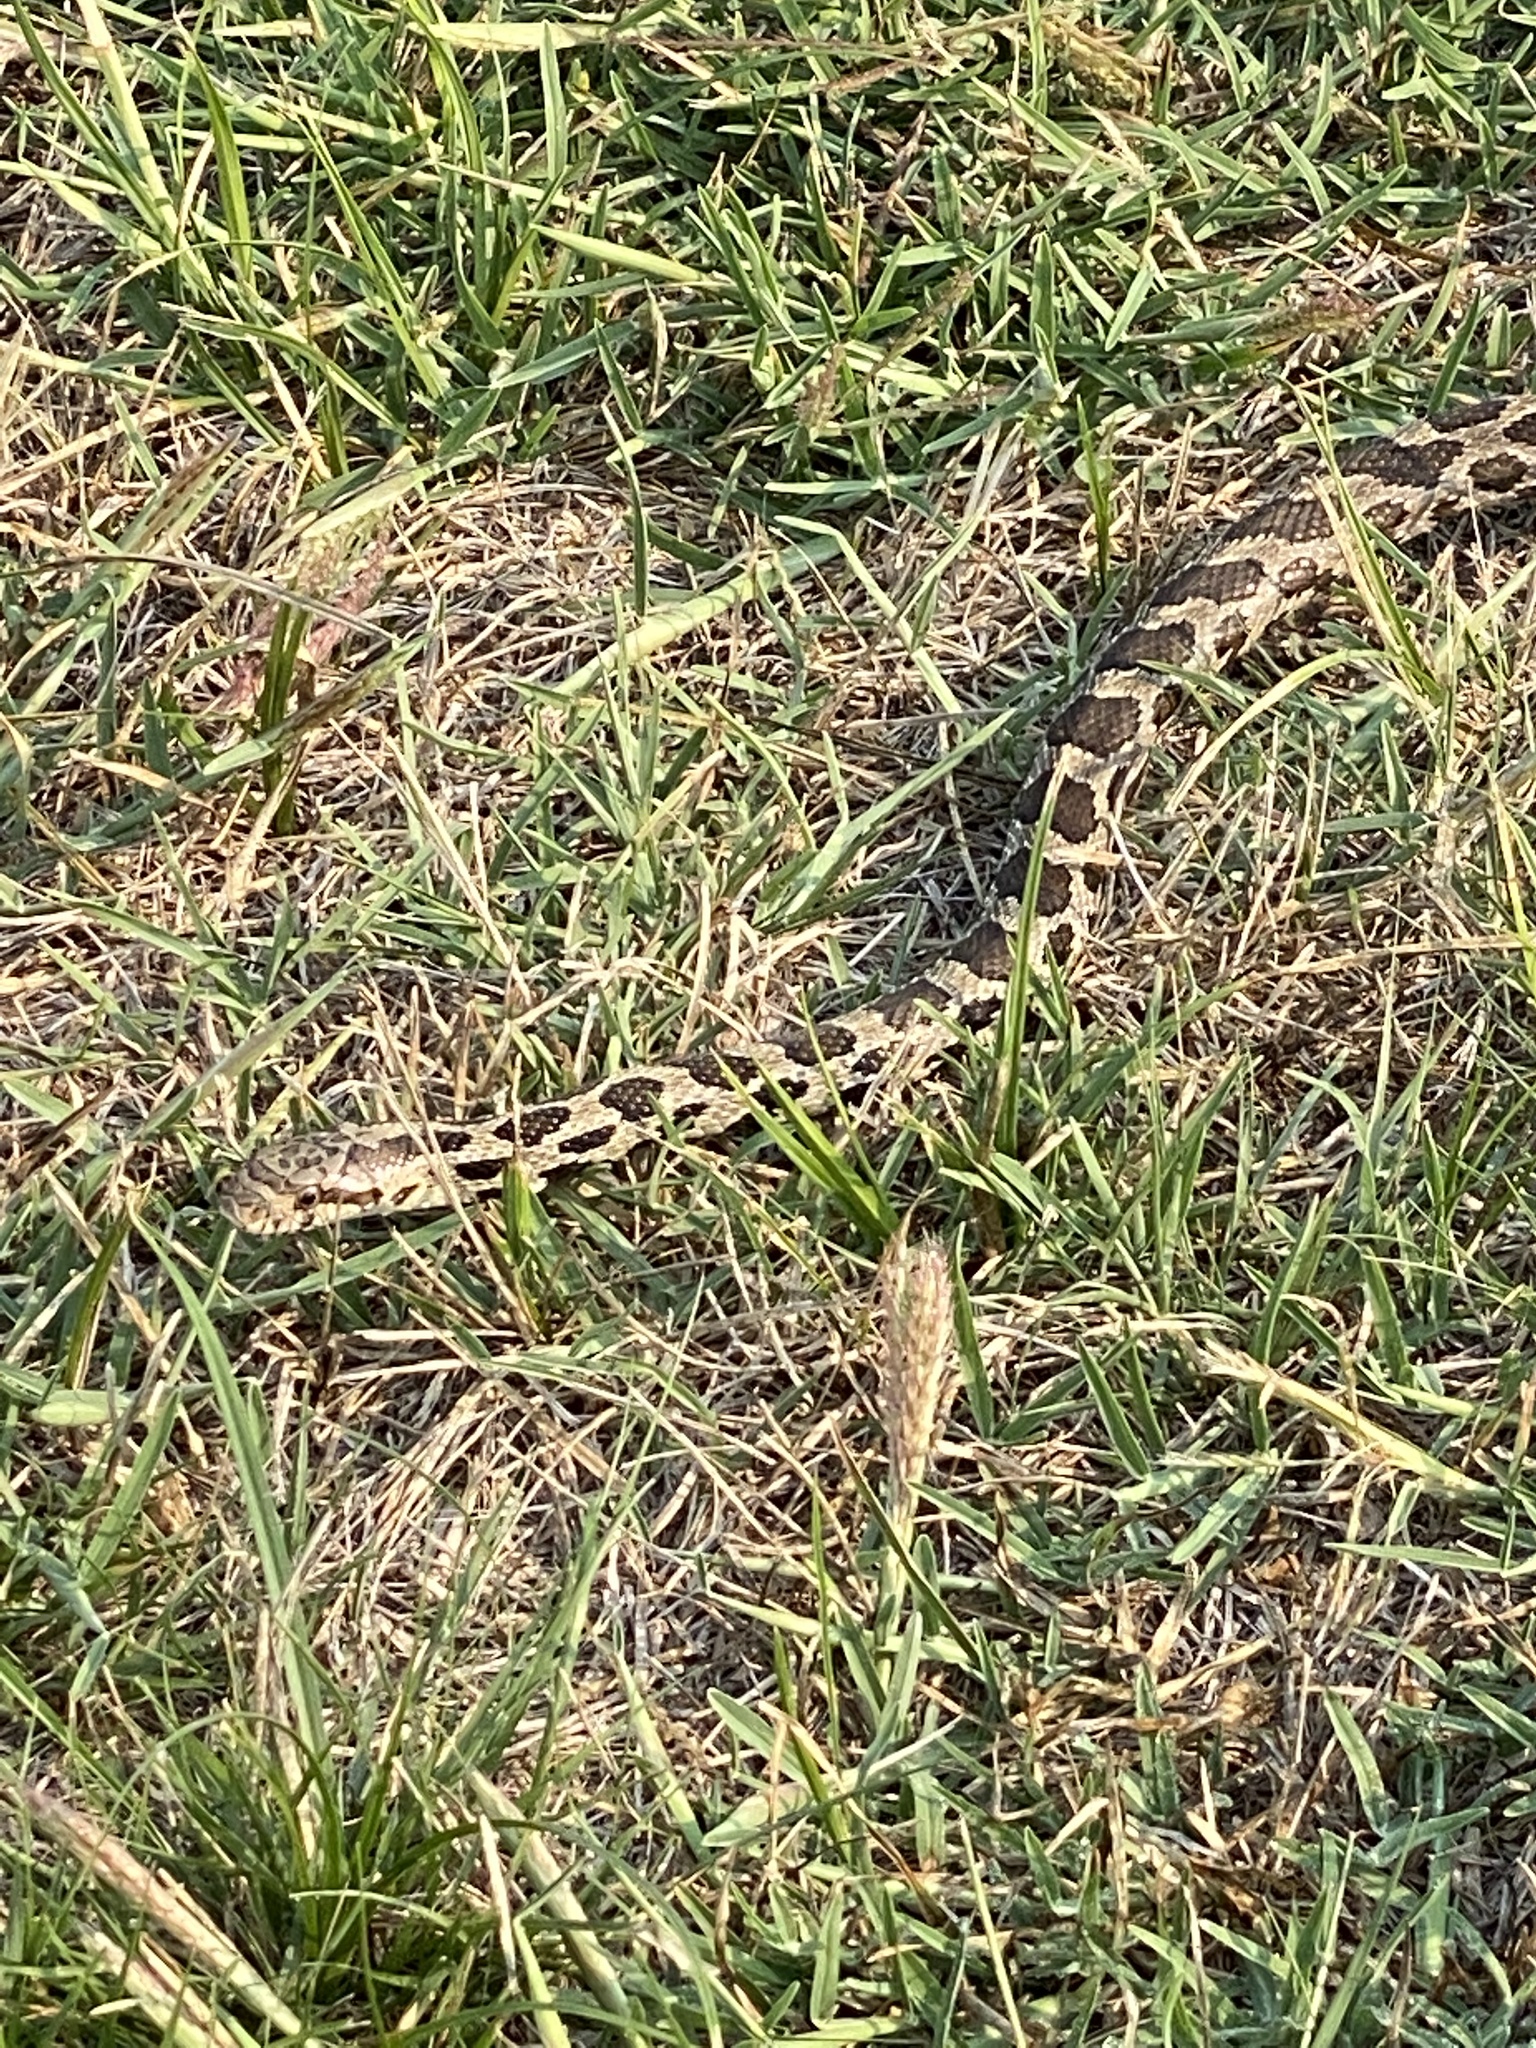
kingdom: Animalia
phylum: Chordata
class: Squamata
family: Colubridae
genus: Pantherophis
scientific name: Pantherophis ramspotti
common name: Western foxsnake
